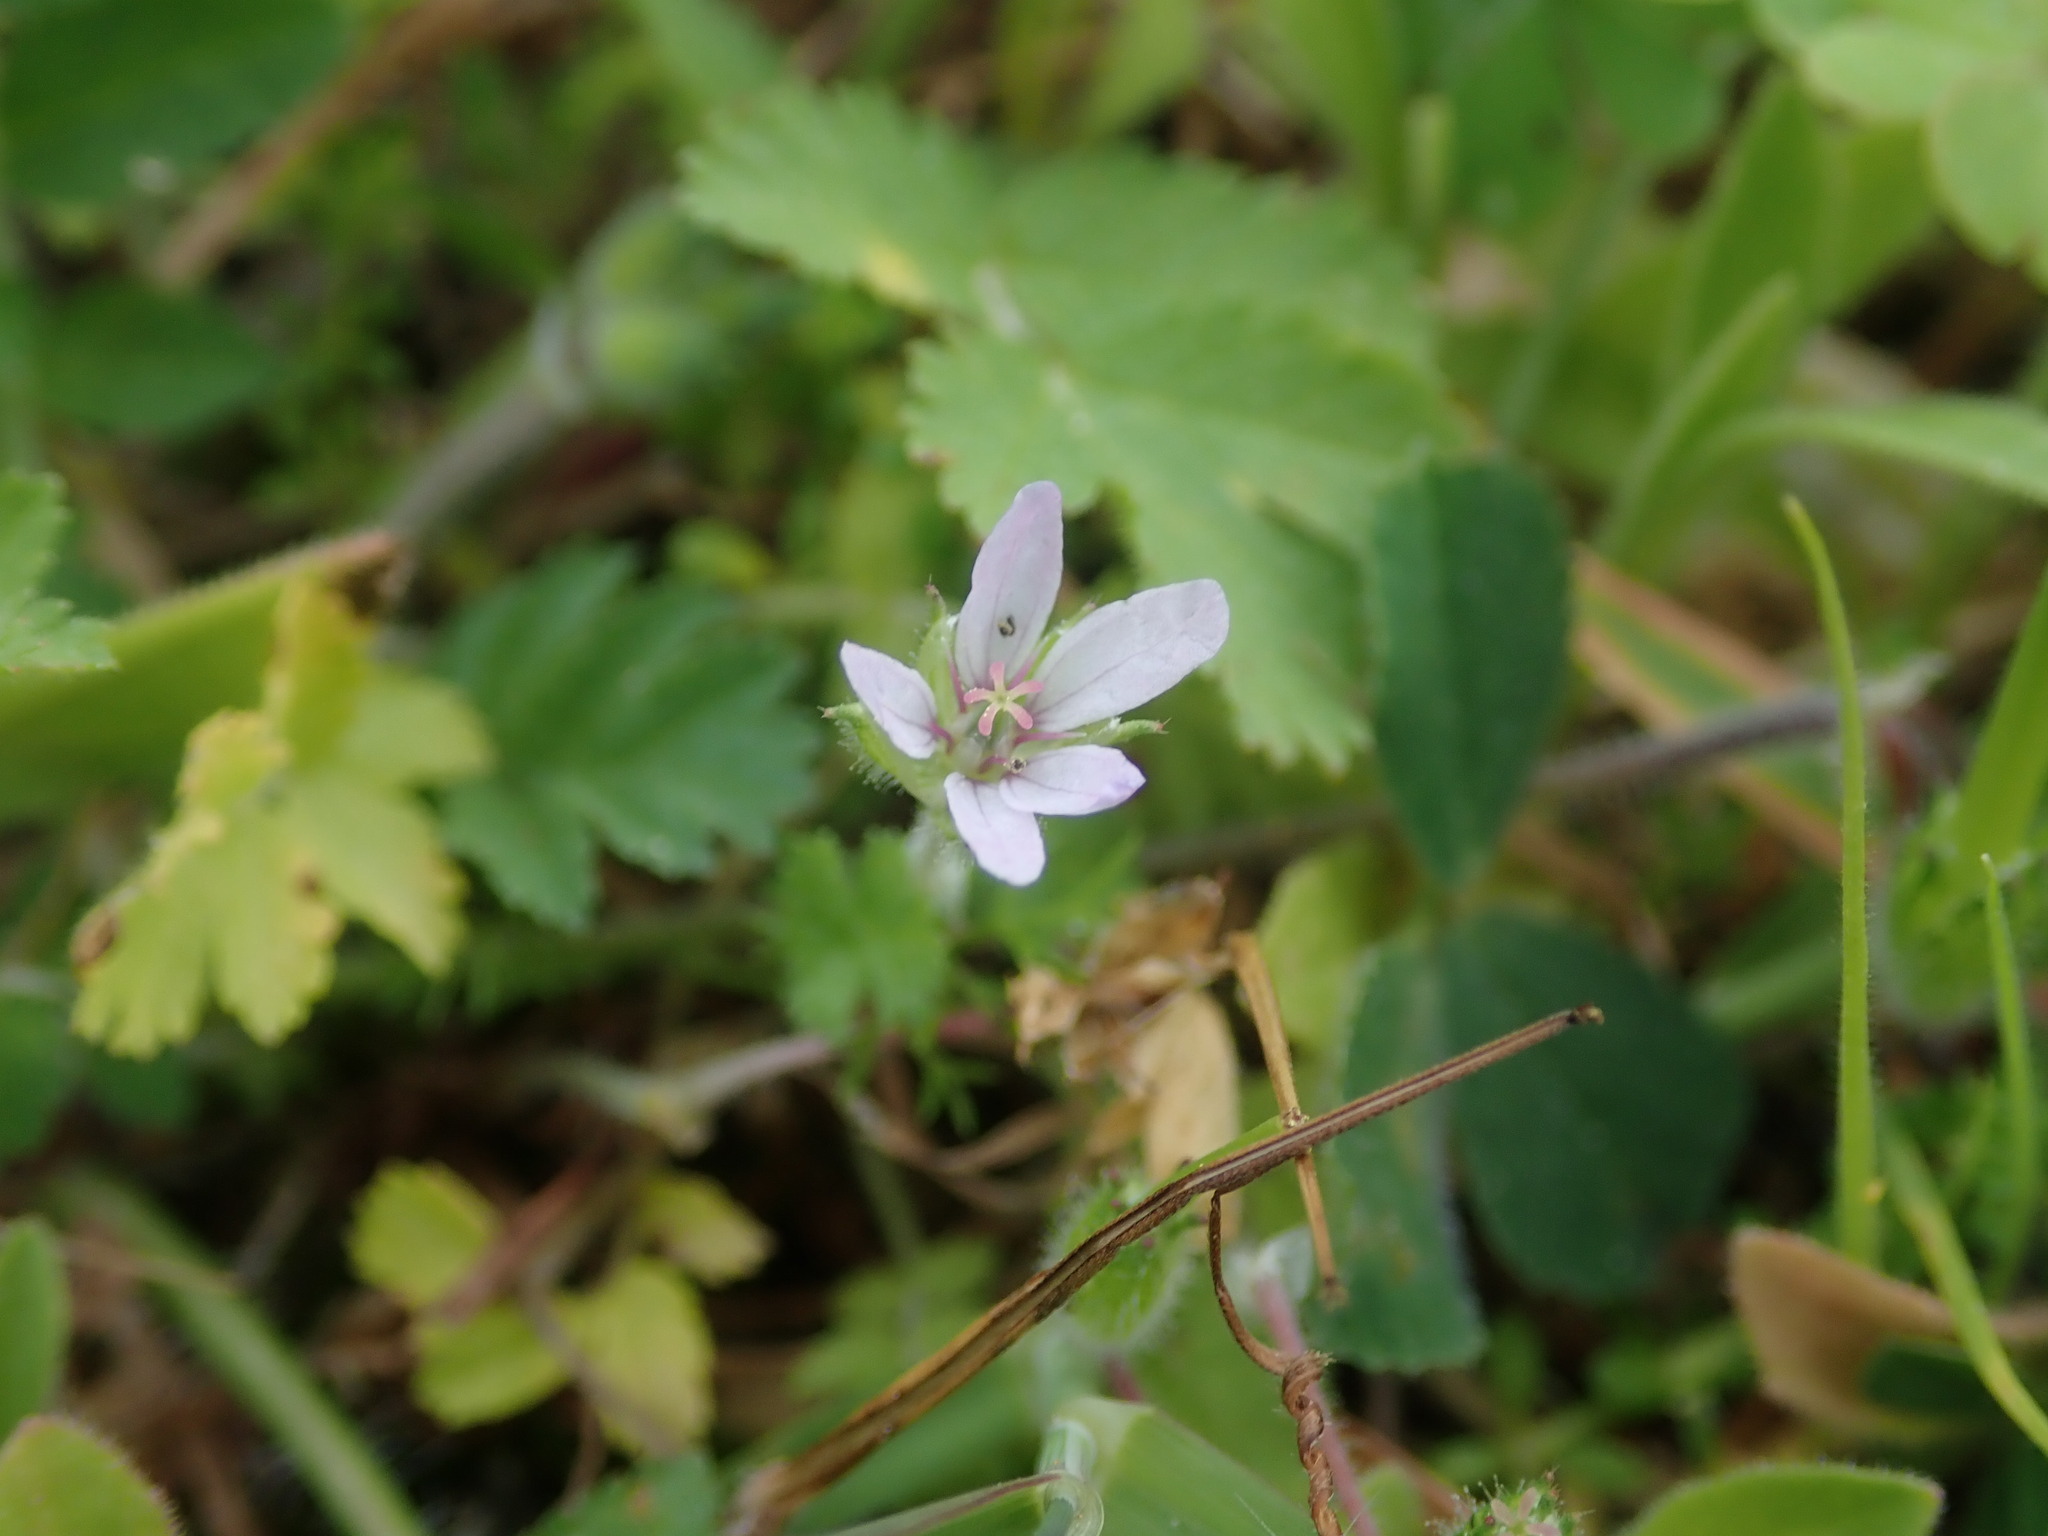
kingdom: Plantae
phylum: Tracheophyta
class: Magnoliopsida
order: Geraniales
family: Geraniaceae
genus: Erodium
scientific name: Erodium moschatum
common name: Musk stork's-bill
